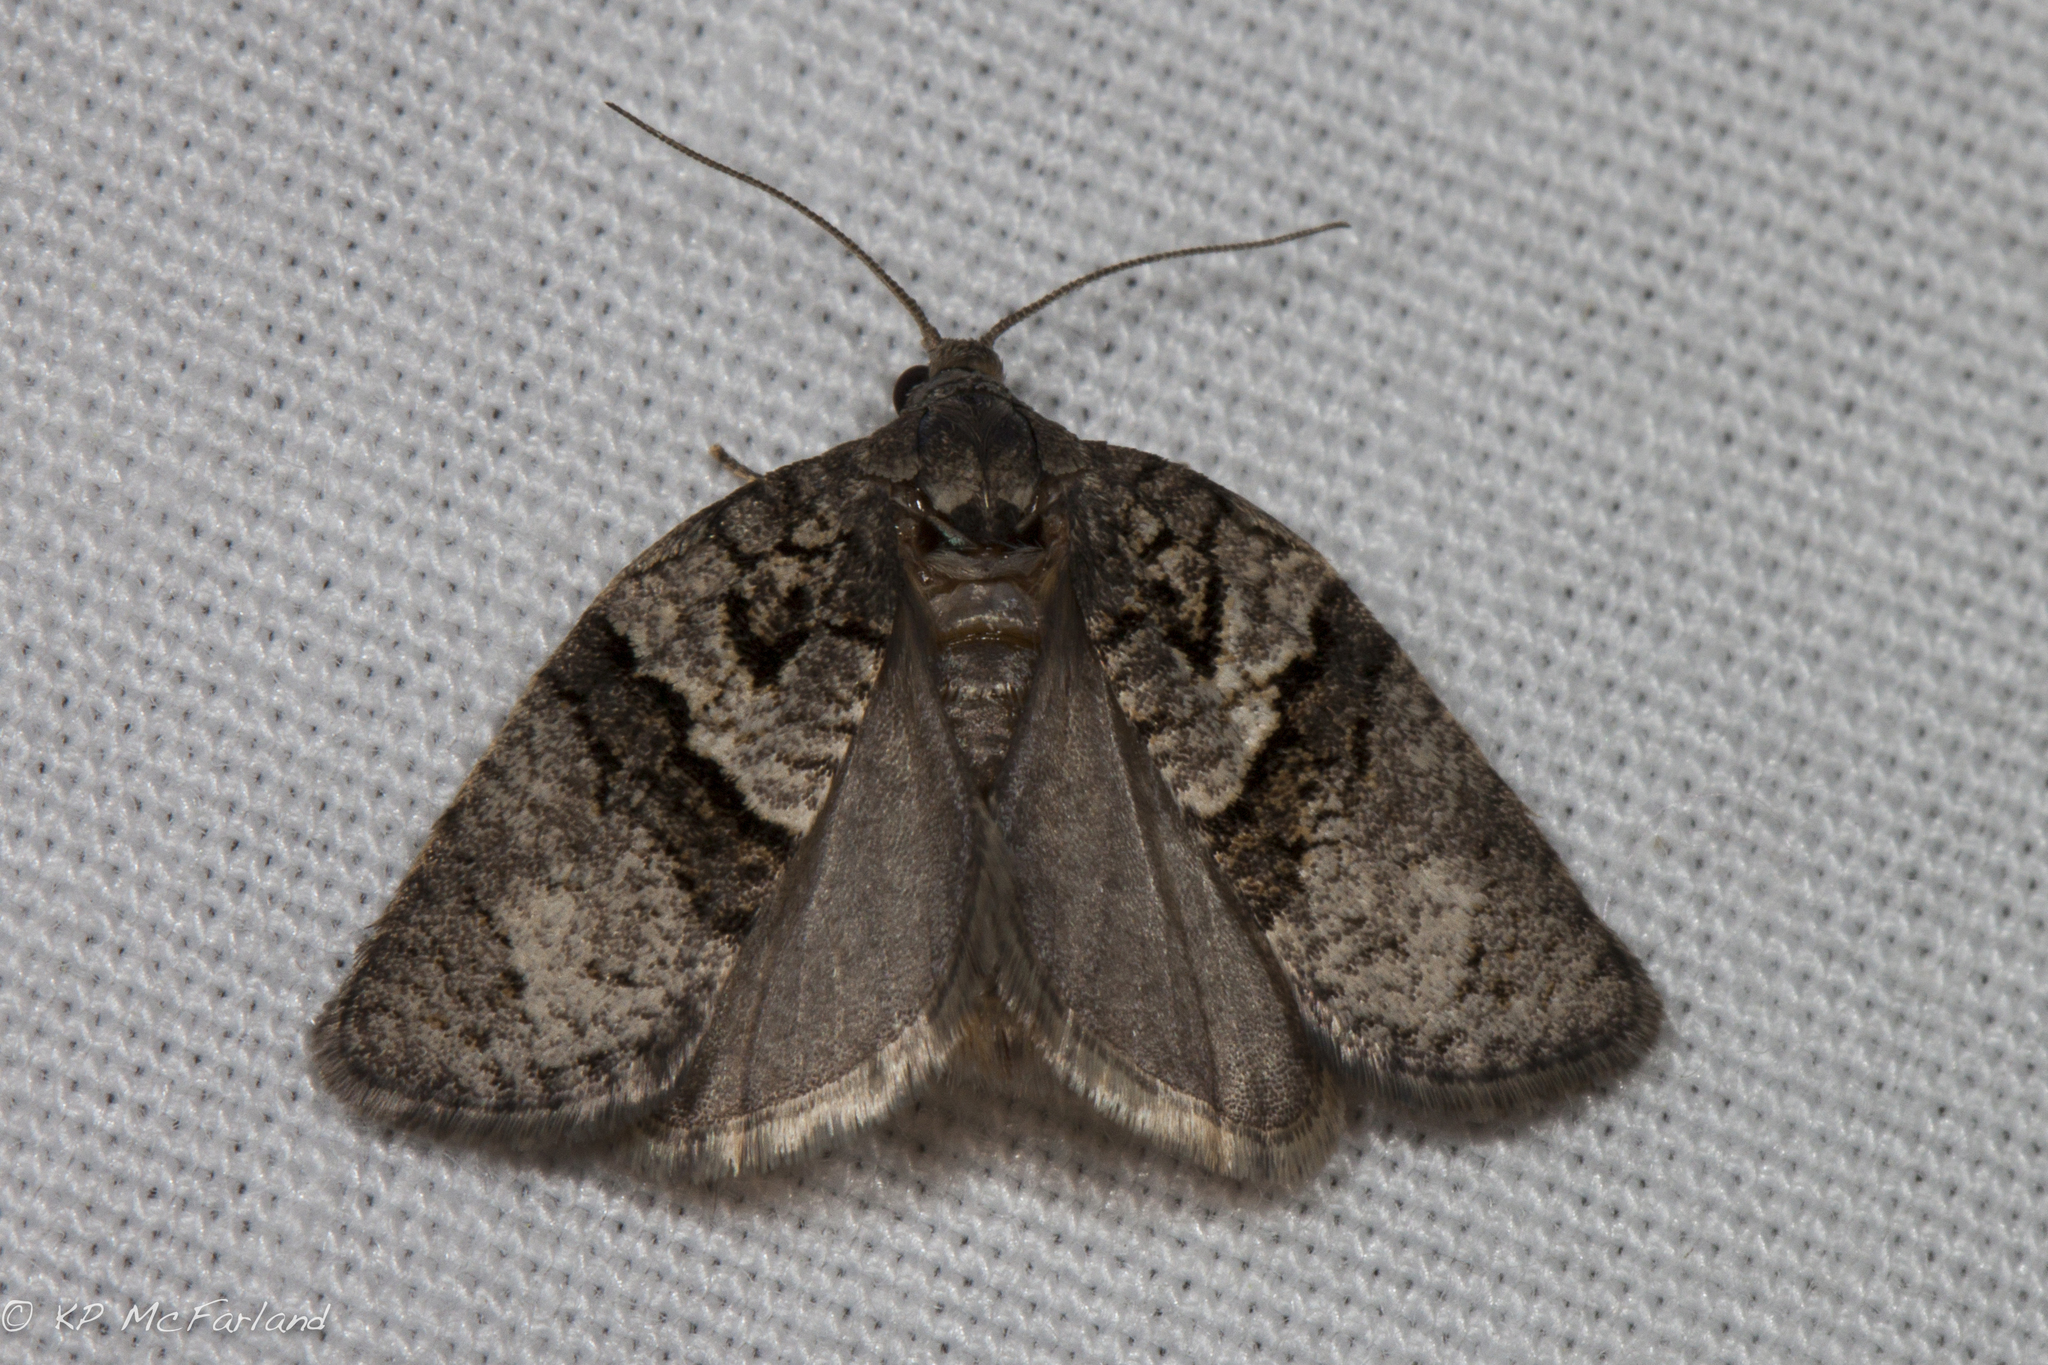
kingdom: Animalia
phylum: Arthropoda
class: Insecta
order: Lepidoptera
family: Tortricidae
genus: Syndemis
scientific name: Syndemis afflictana
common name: Gray leafroller moth
